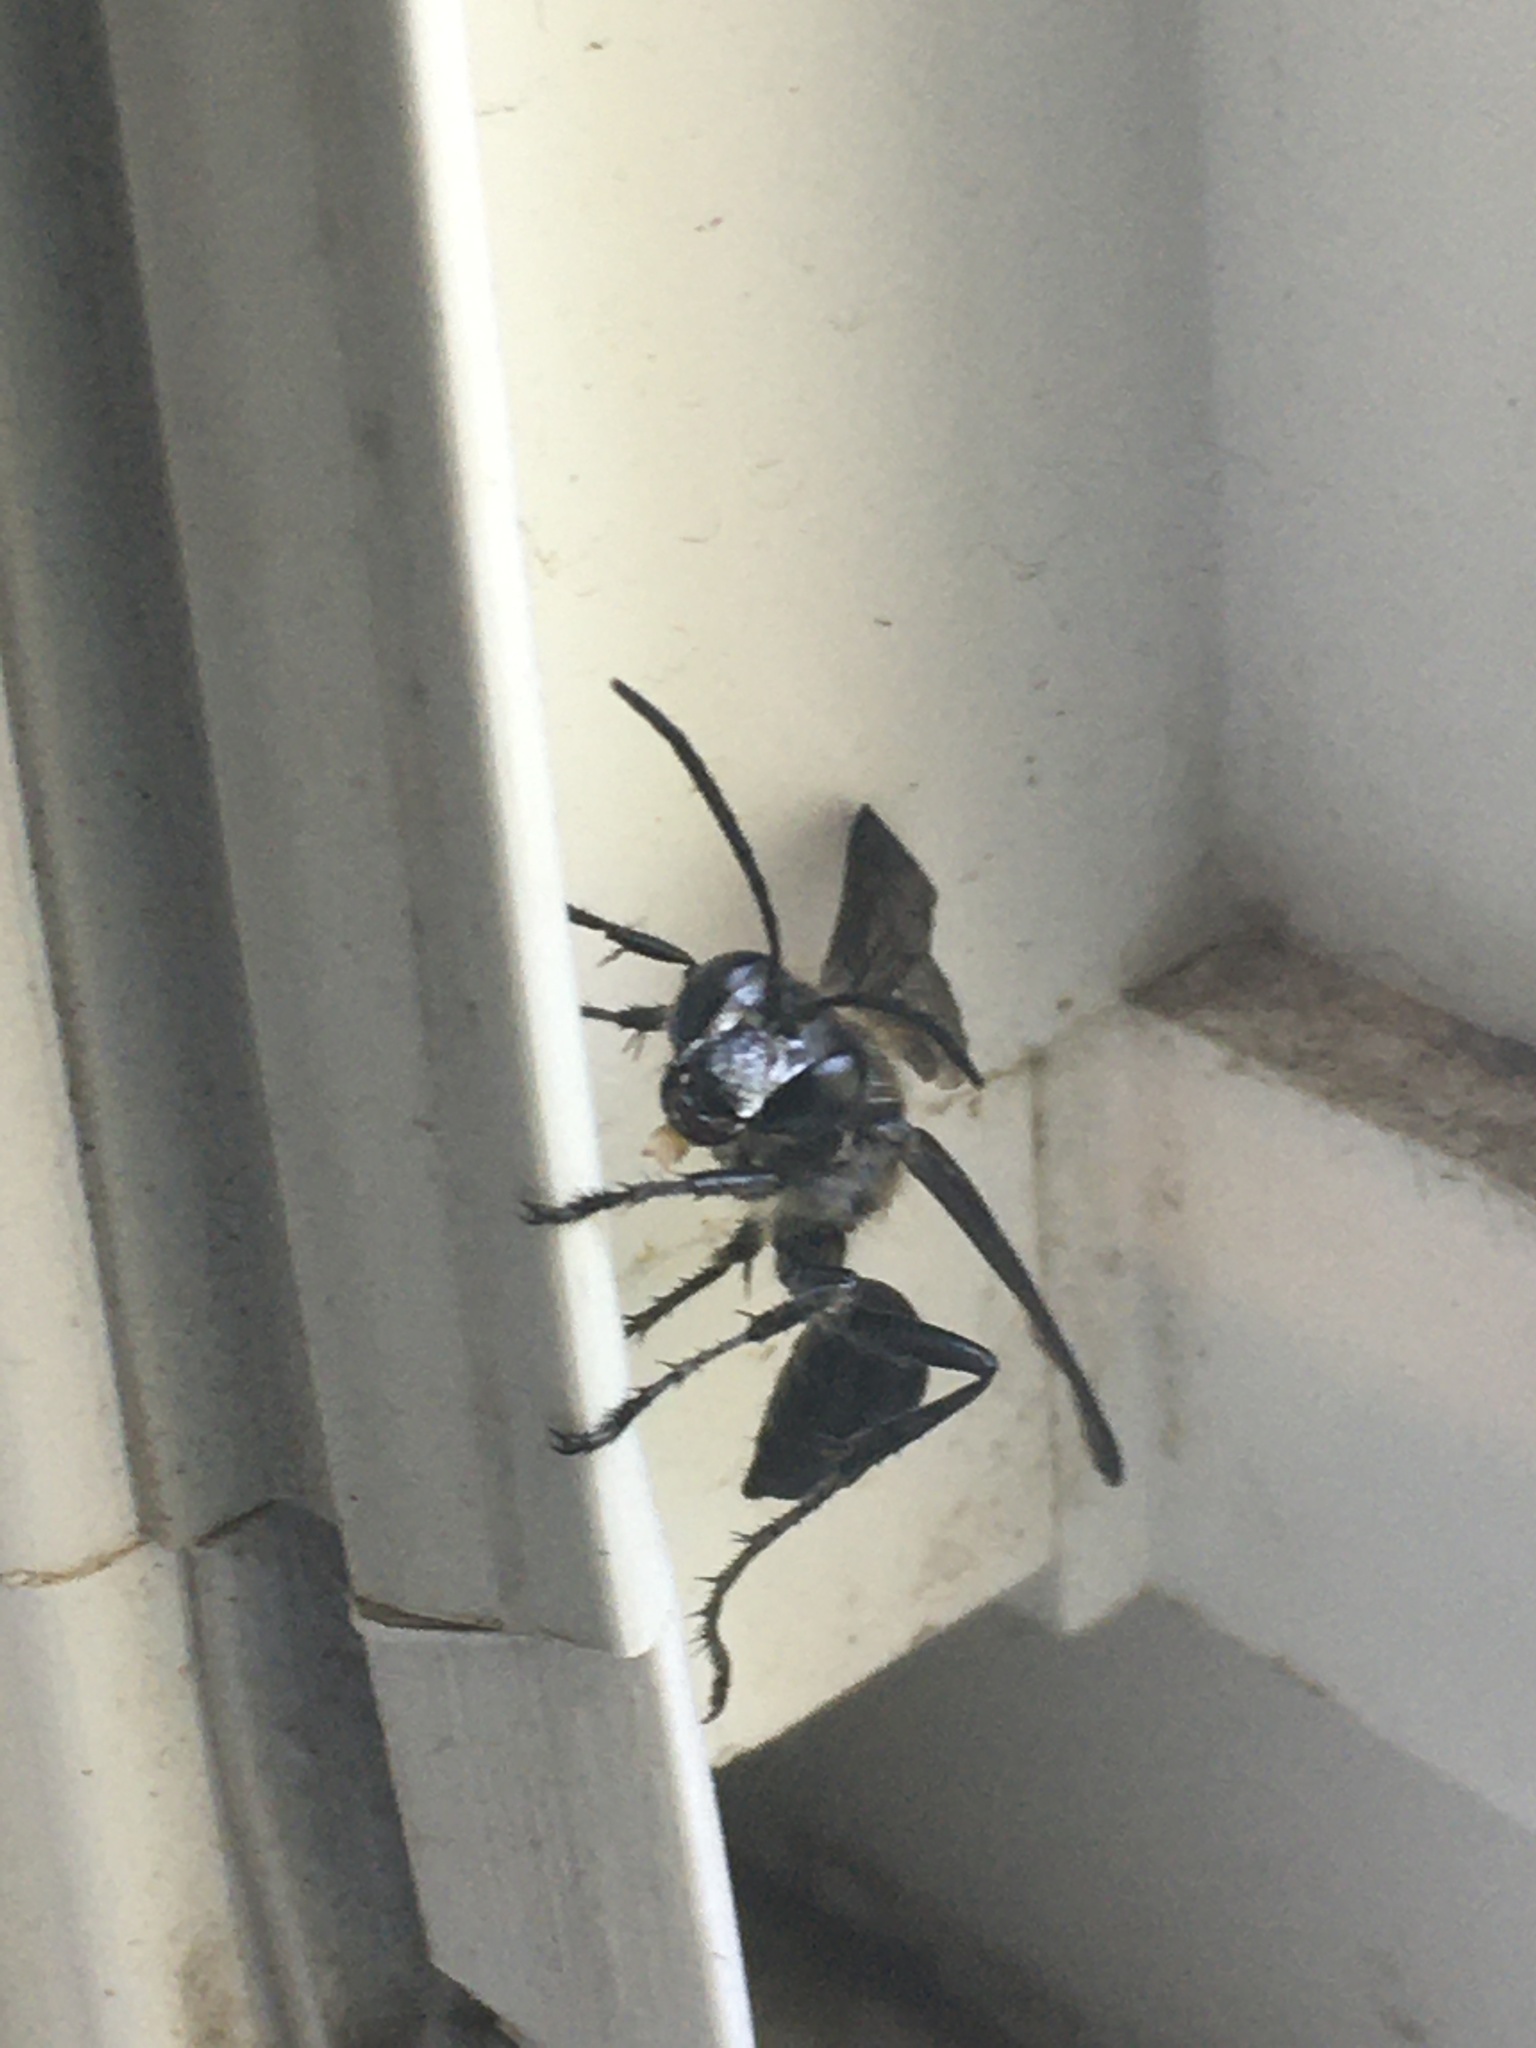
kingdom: Animalia
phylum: Arthropoda
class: Insecta
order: Hymenoptera
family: Sphecidae
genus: Isodontia
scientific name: Isodontia mexicana
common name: Mud dauber
